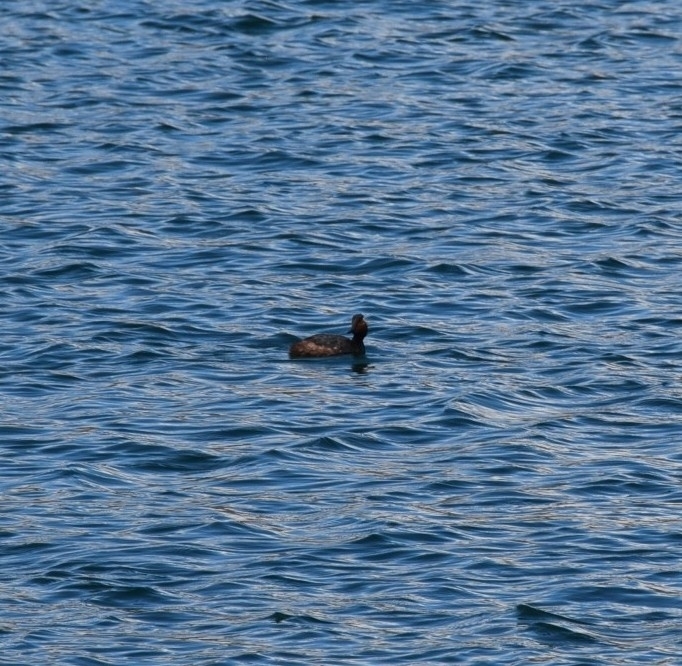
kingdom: Animalia
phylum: Chordata
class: Aves
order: Podicipediformes
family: Podicipedidae
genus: Podiceps
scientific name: Podiceps nigricollis
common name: Black-necked grebe
